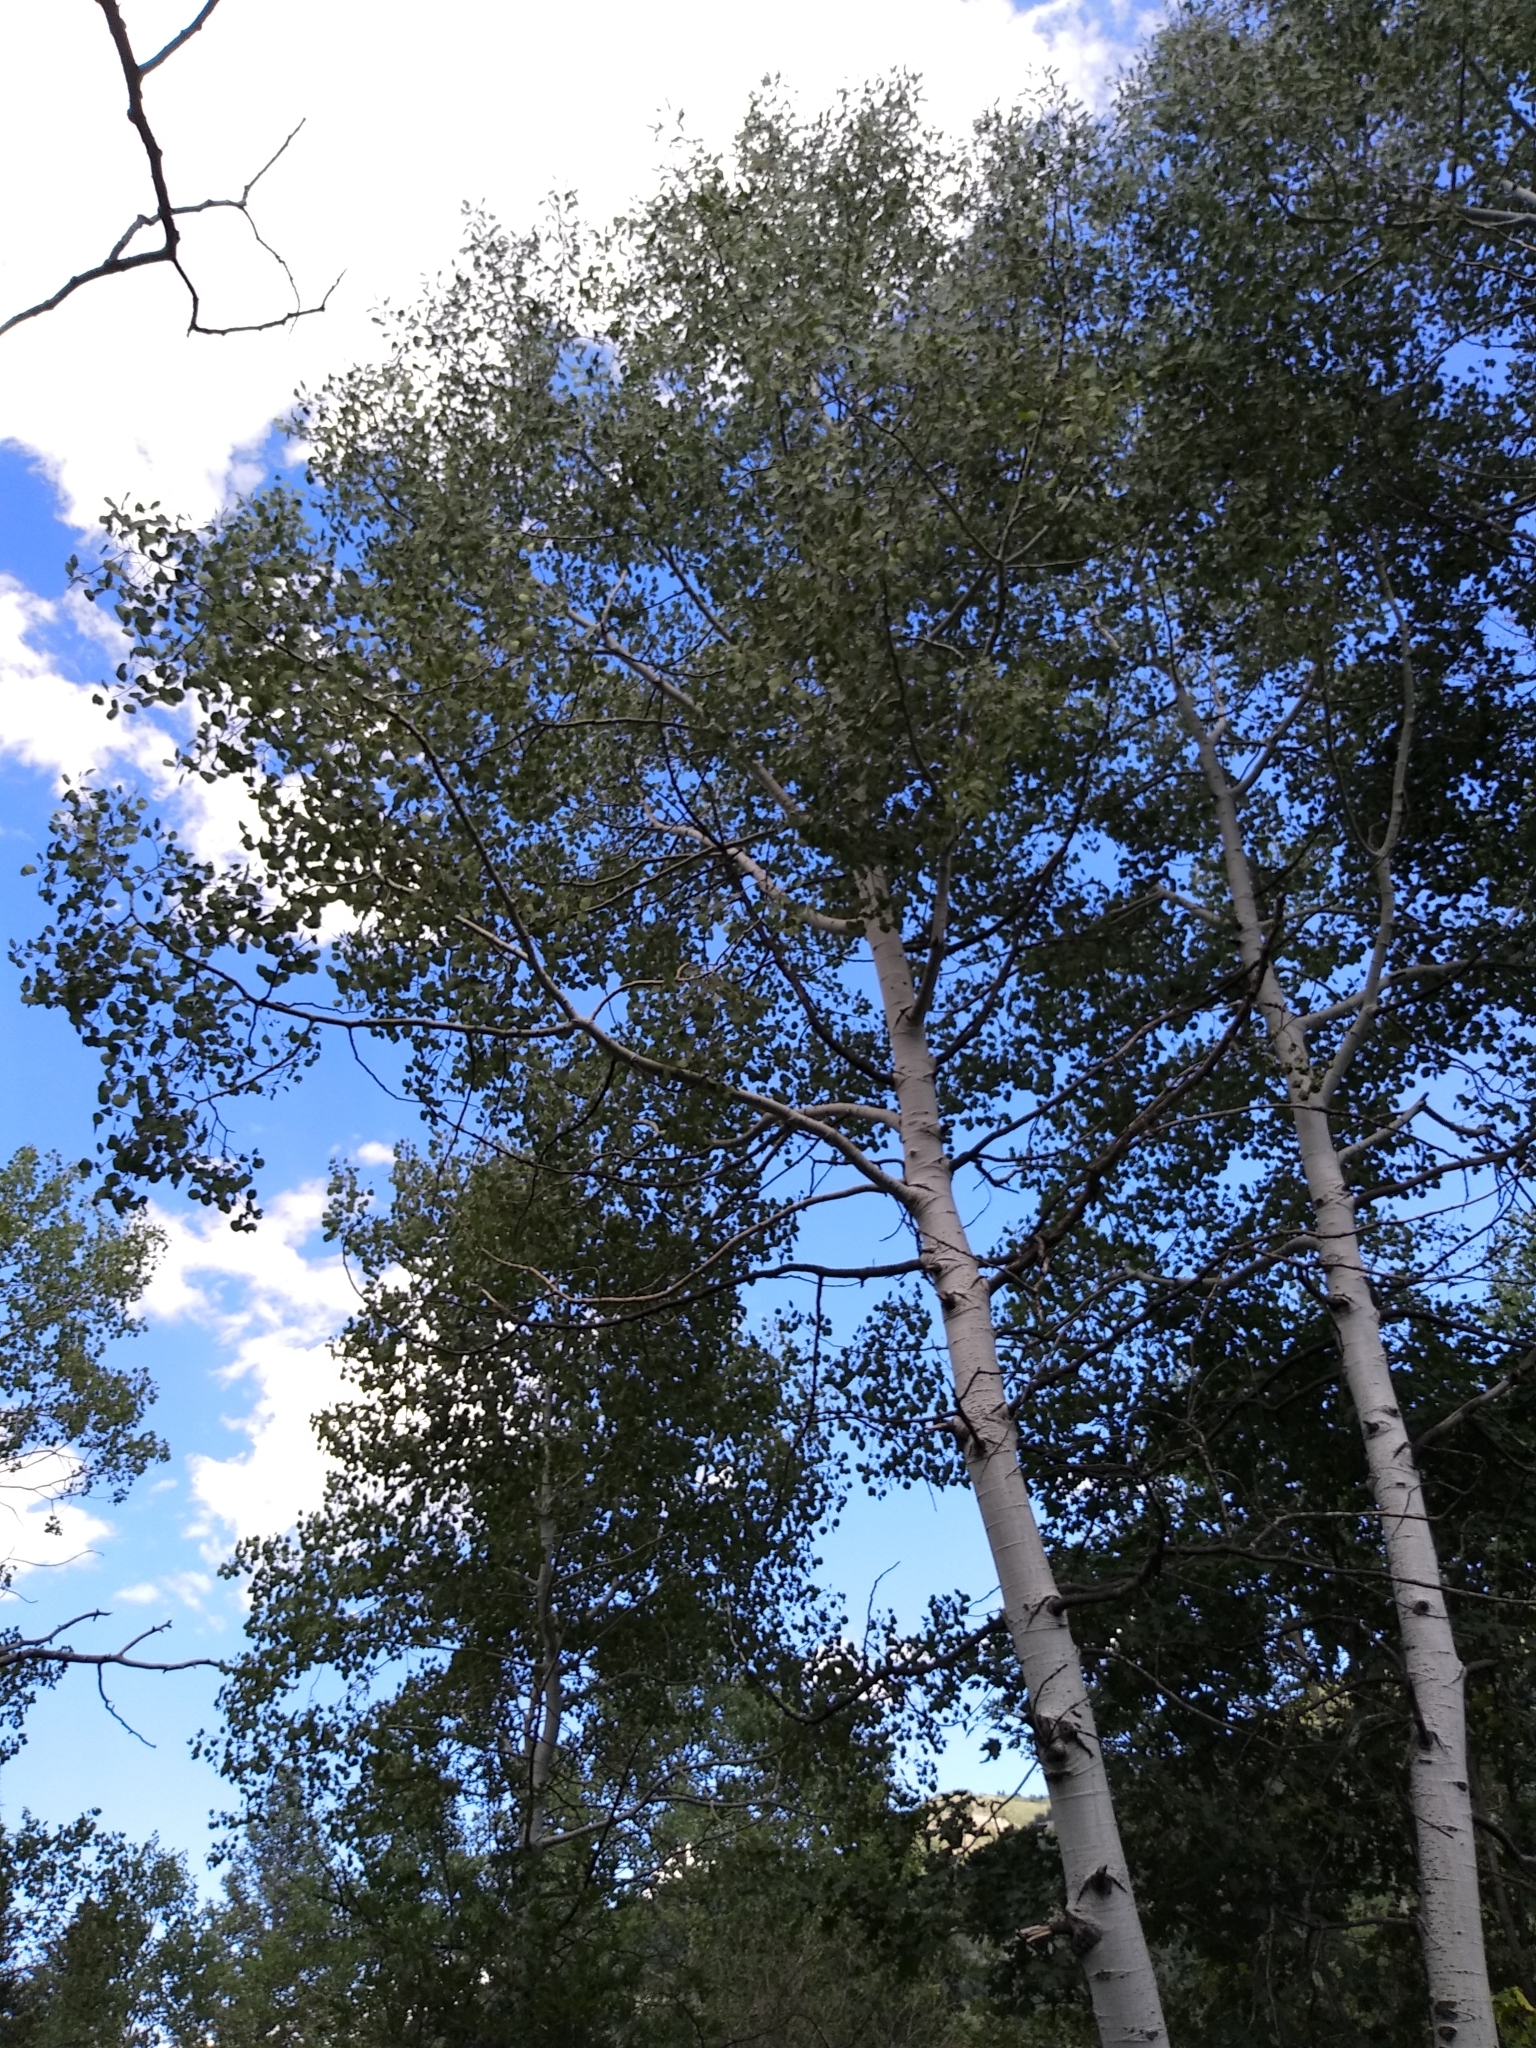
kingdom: Plantae
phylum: Tracheophyta
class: Magnoliopsida
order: Malpighiales
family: Salicaceae
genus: Populus
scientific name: Populus tremuloides
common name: Quaking aspen
